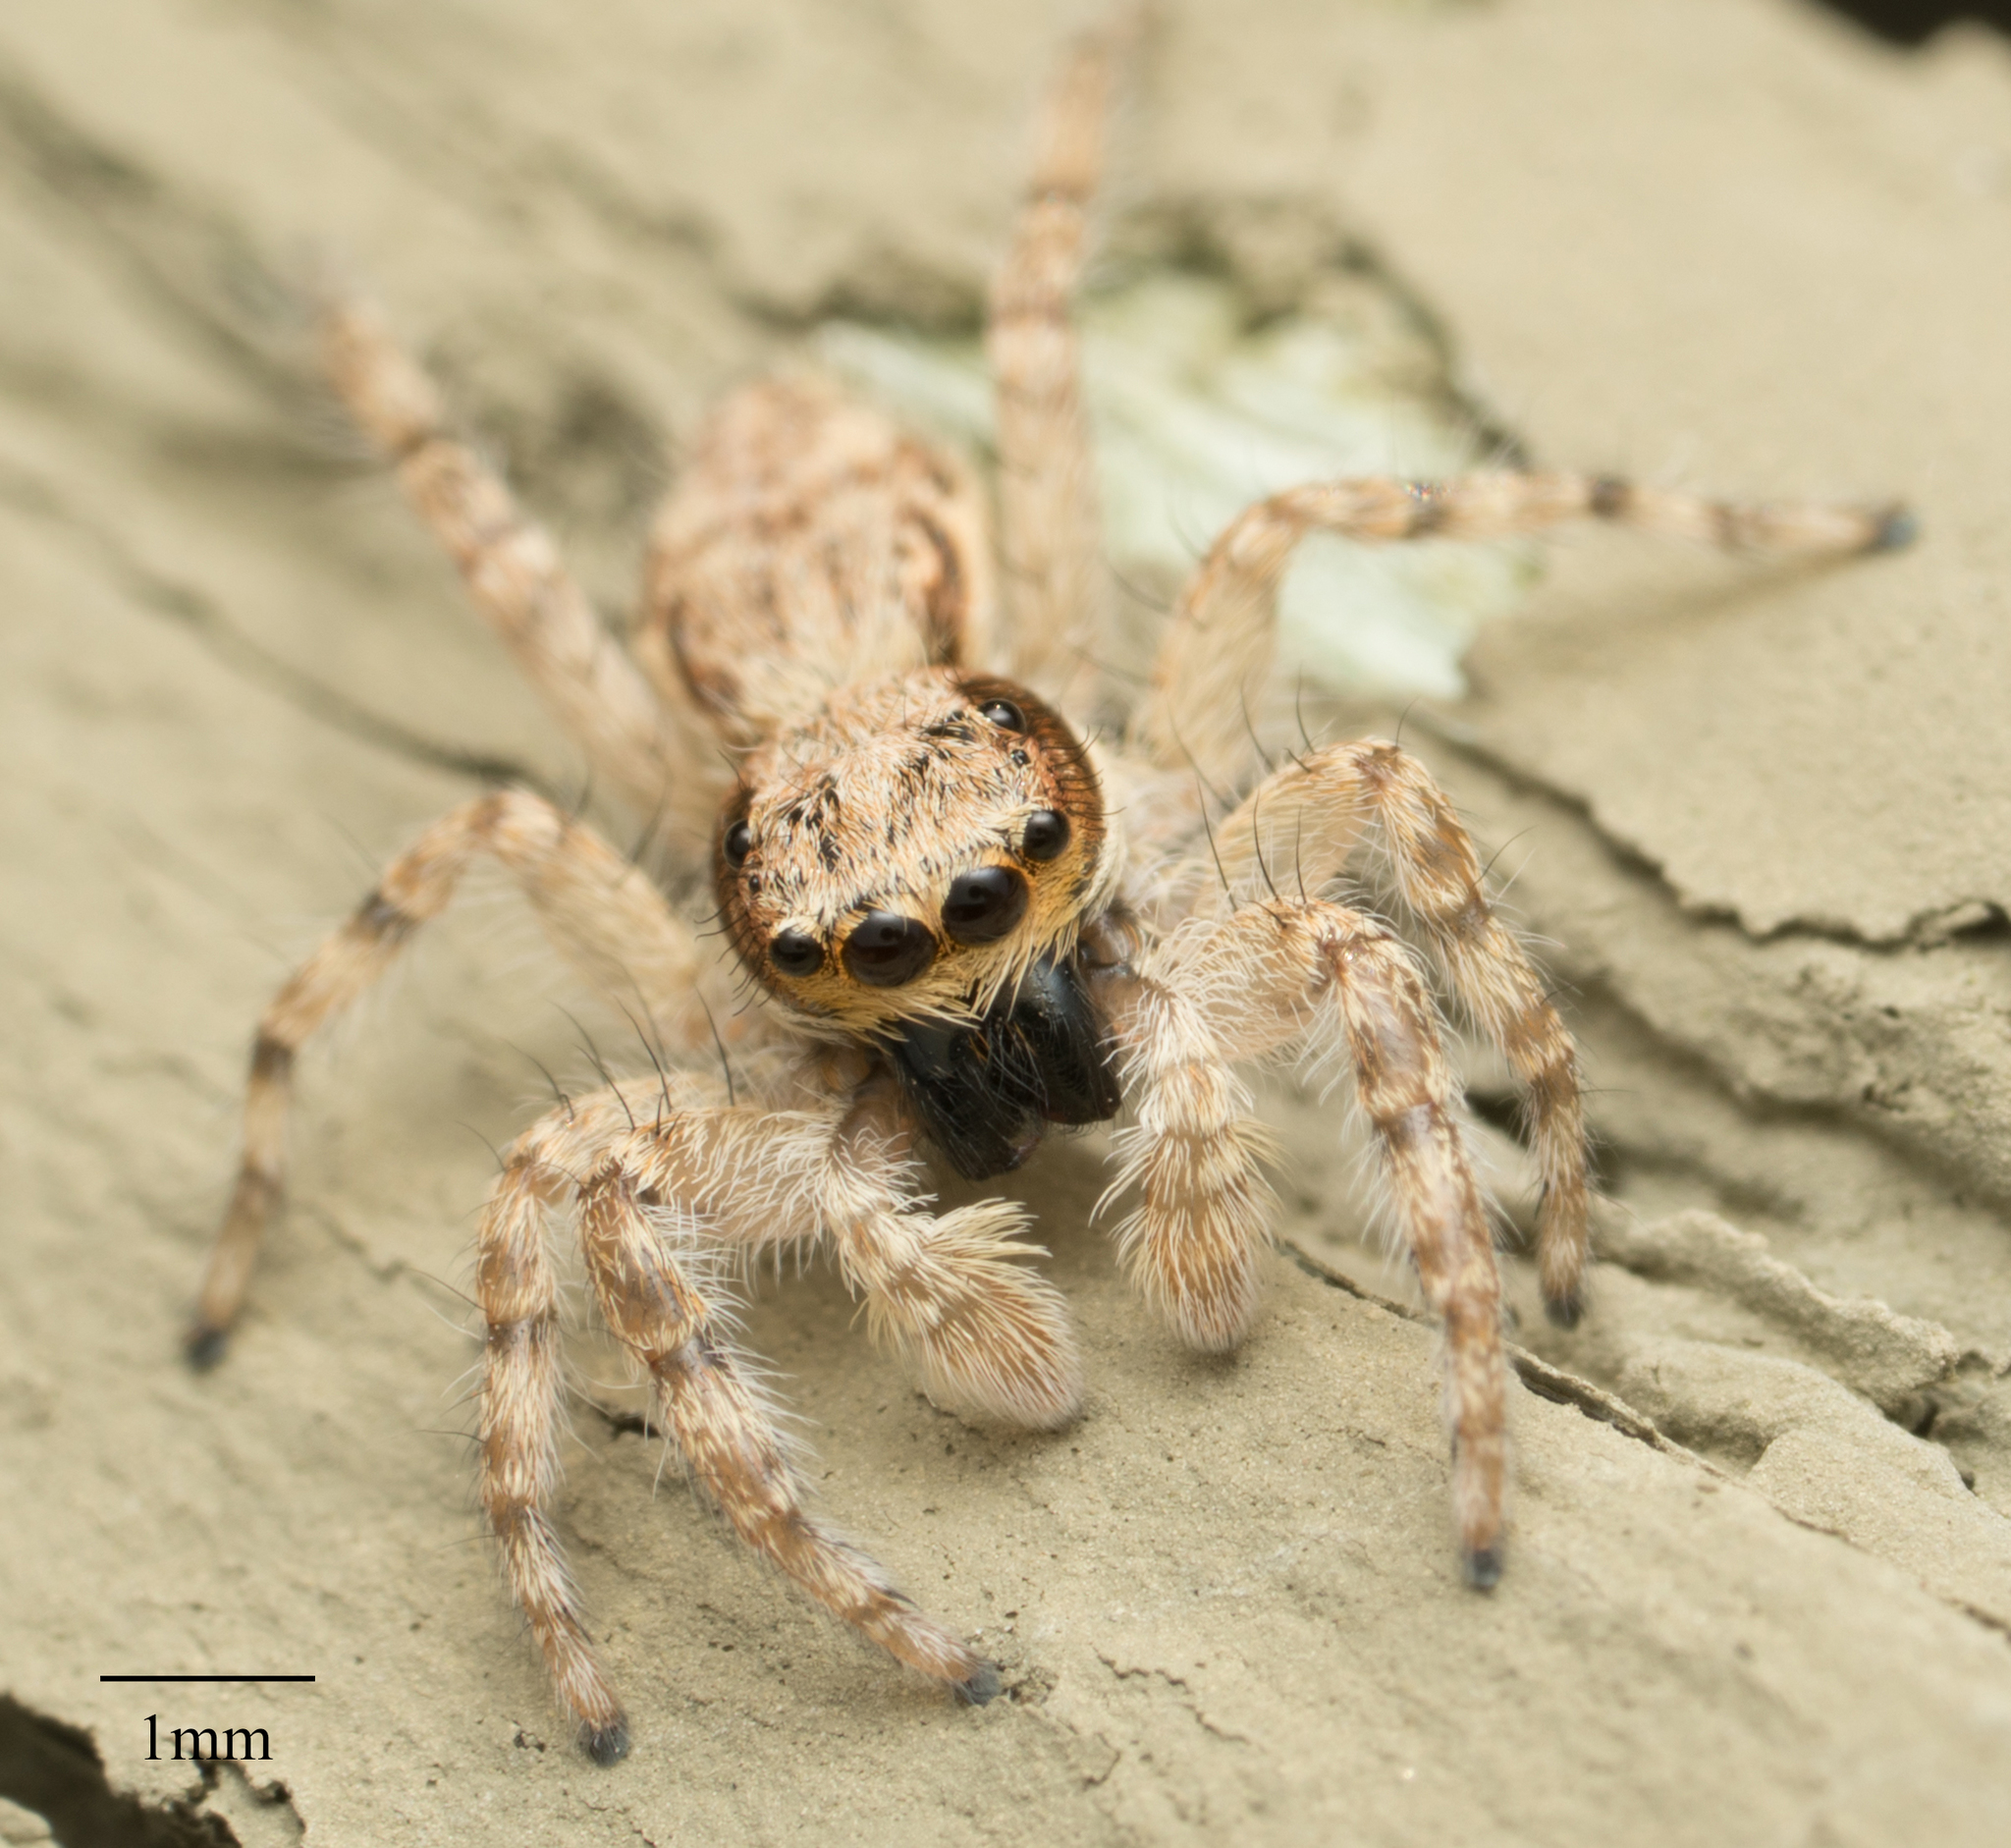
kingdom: Animalia
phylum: Arthropoda
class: Arachnida
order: Araneae
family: Salticidae
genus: Menemerus
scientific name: Menemerus bivittatus
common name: Gray wall jumper
